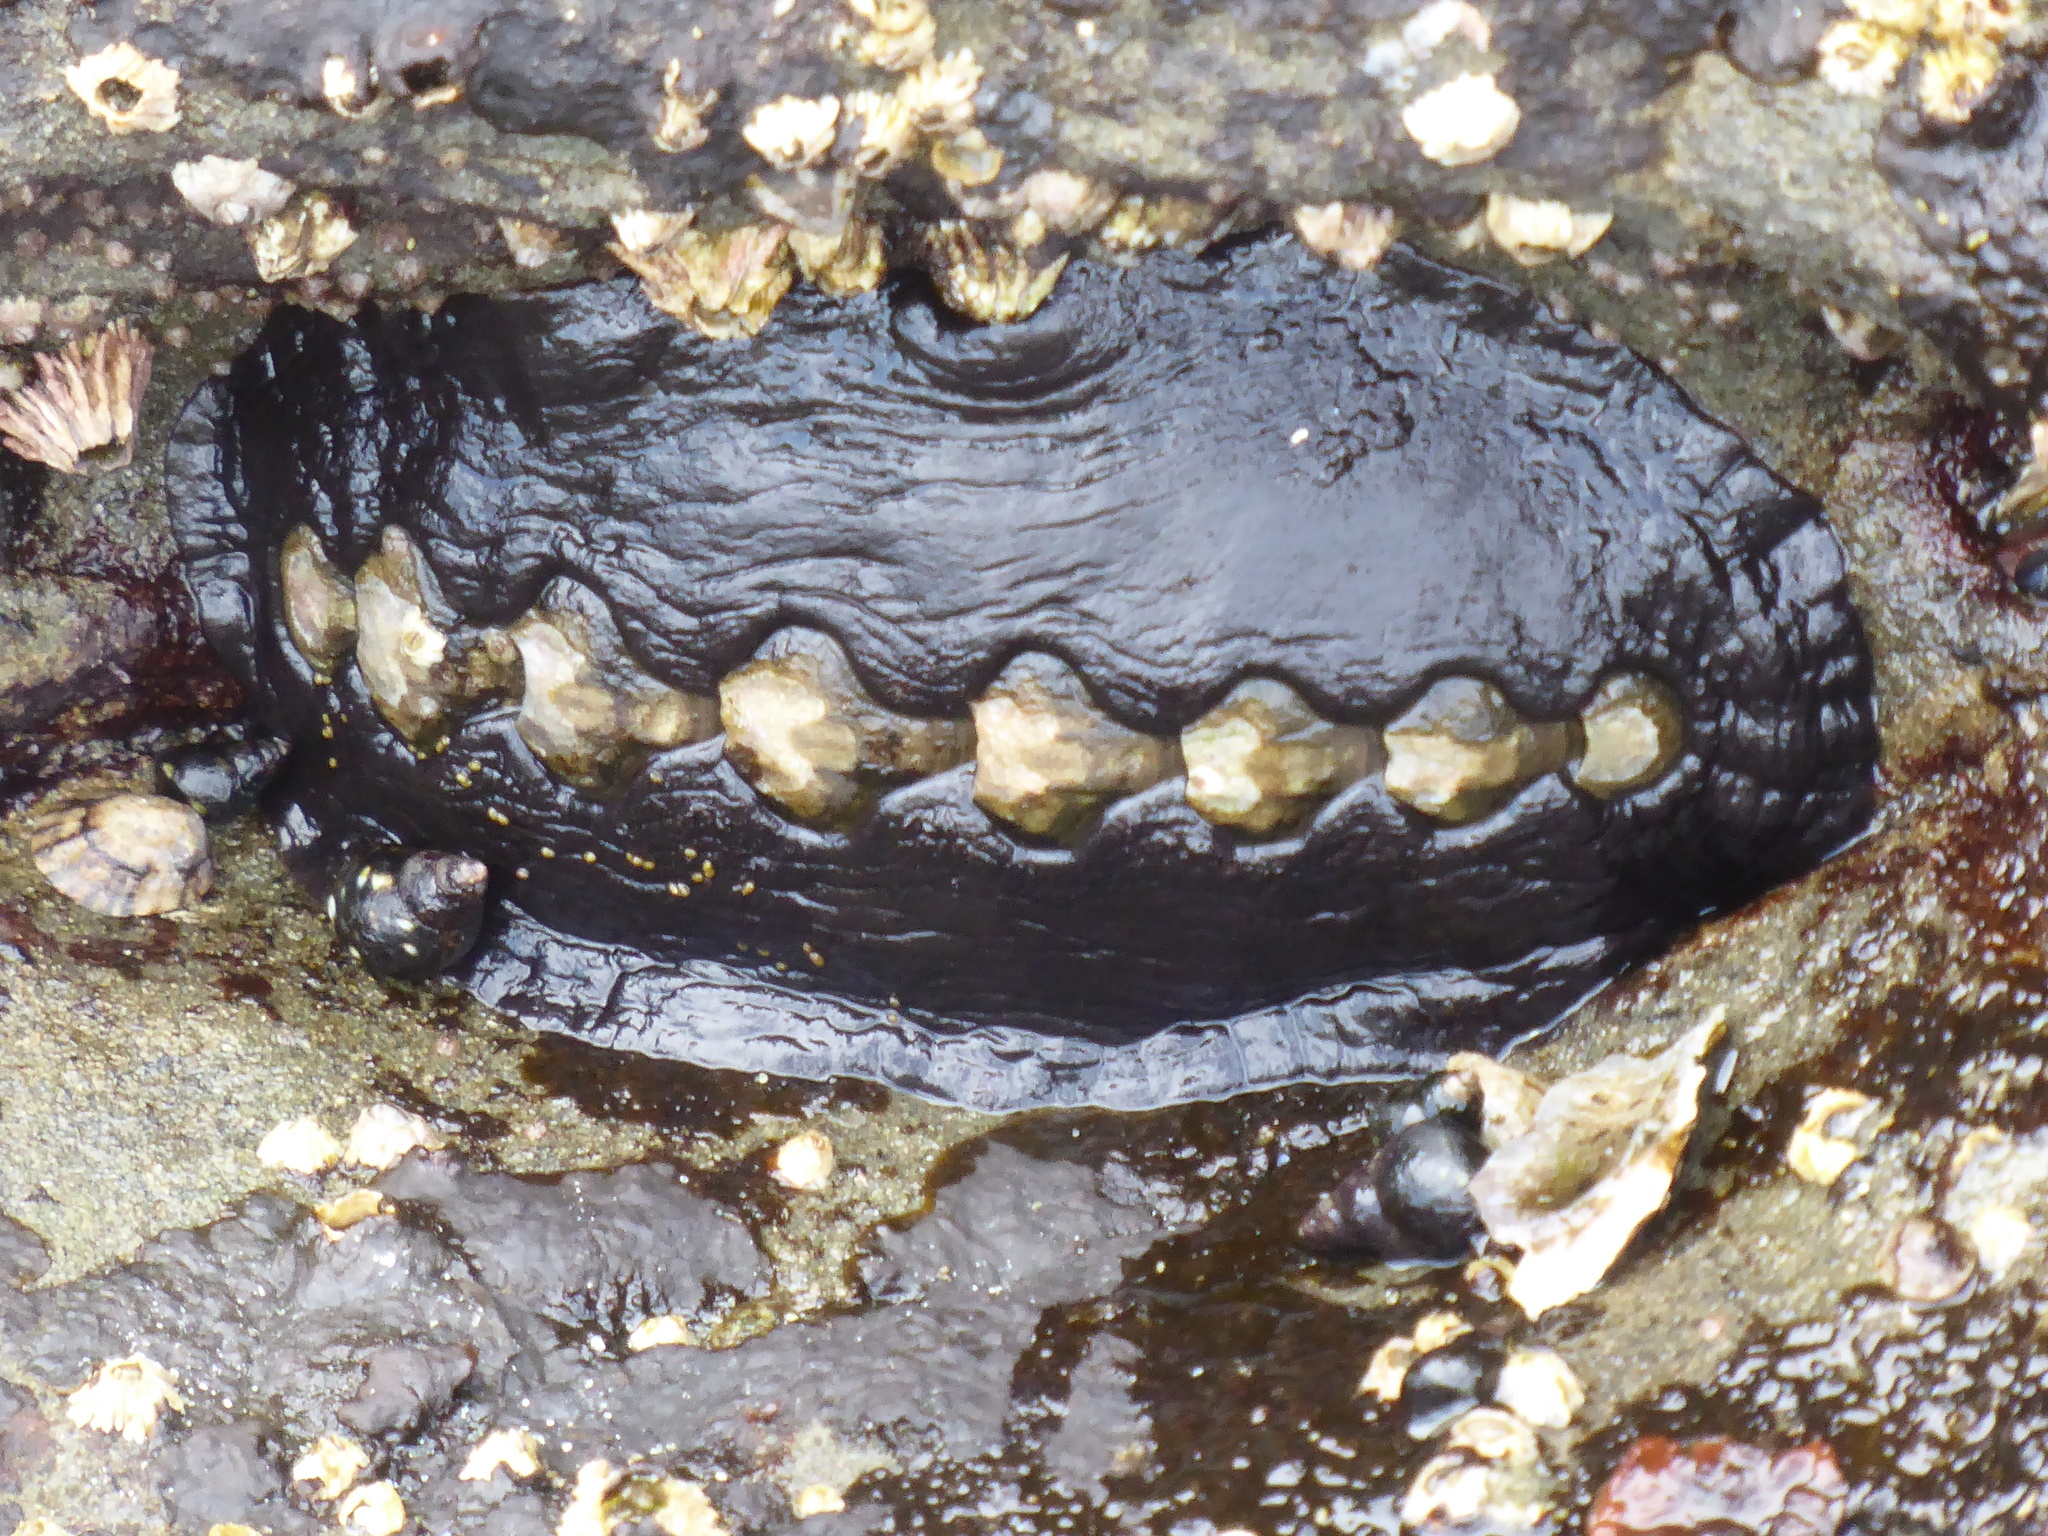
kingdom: Animalia
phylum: Mollusca
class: Polyplacophora
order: Chitonida
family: Mopaliidae
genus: Katharina
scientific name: Katharina tunicata
